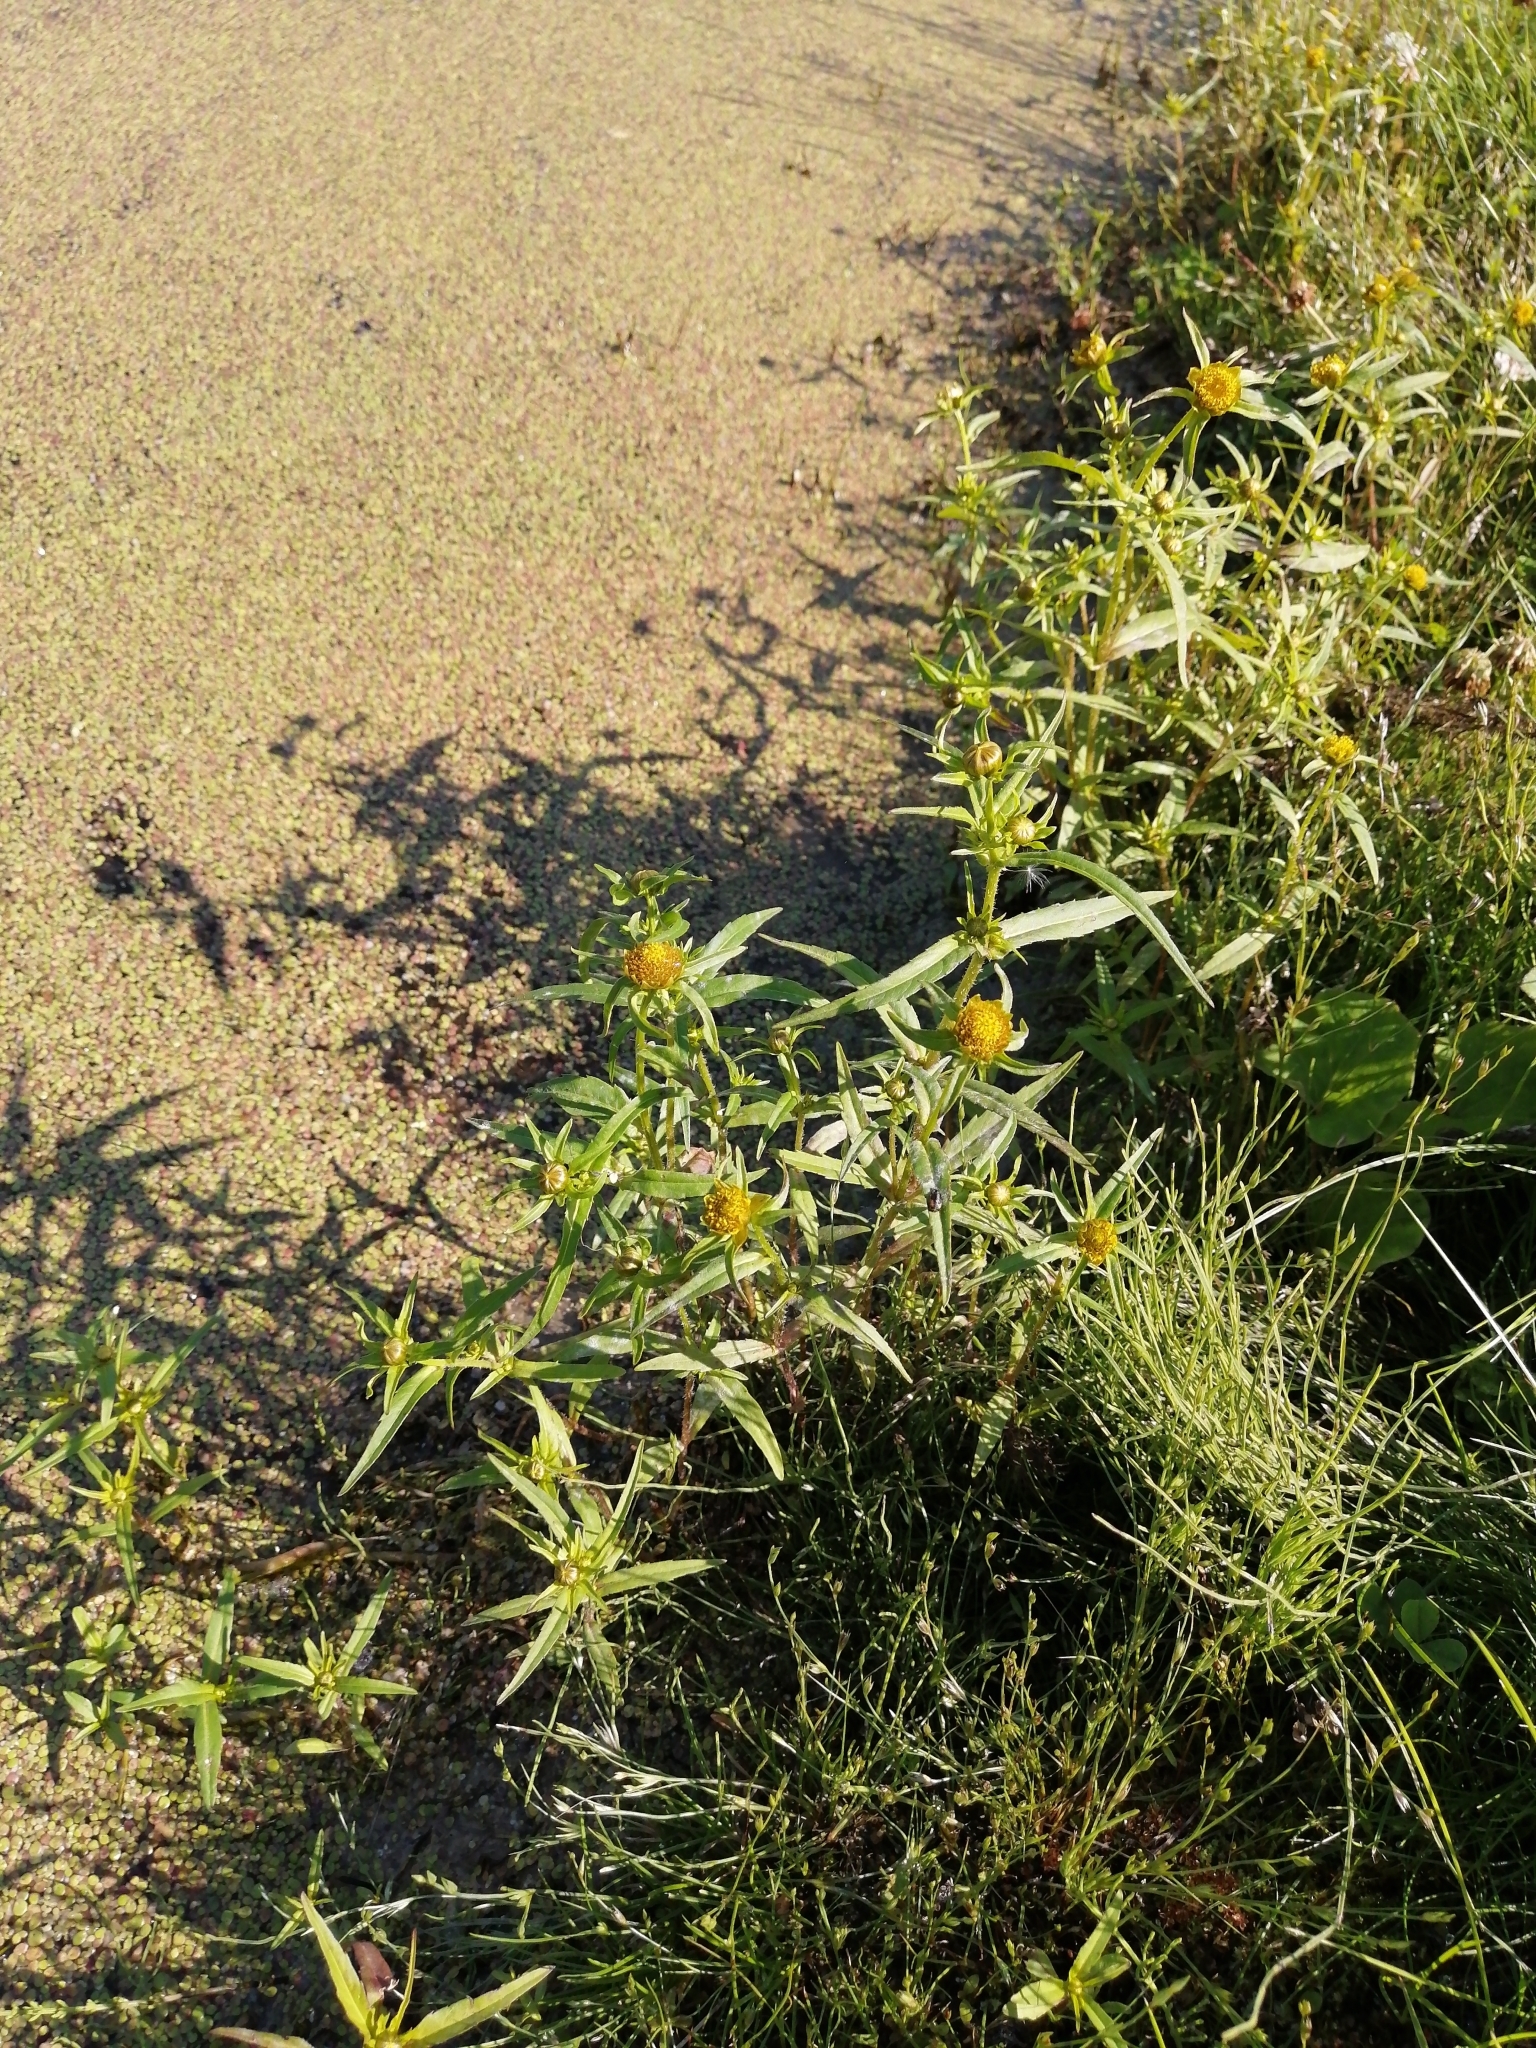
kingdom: Plantae
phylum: Tracheophyta
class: Magnoliopsida
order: Asterales
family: Asteraceae
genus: Bidens
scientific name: Bidens cernua
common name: Nodding bur-marigold
